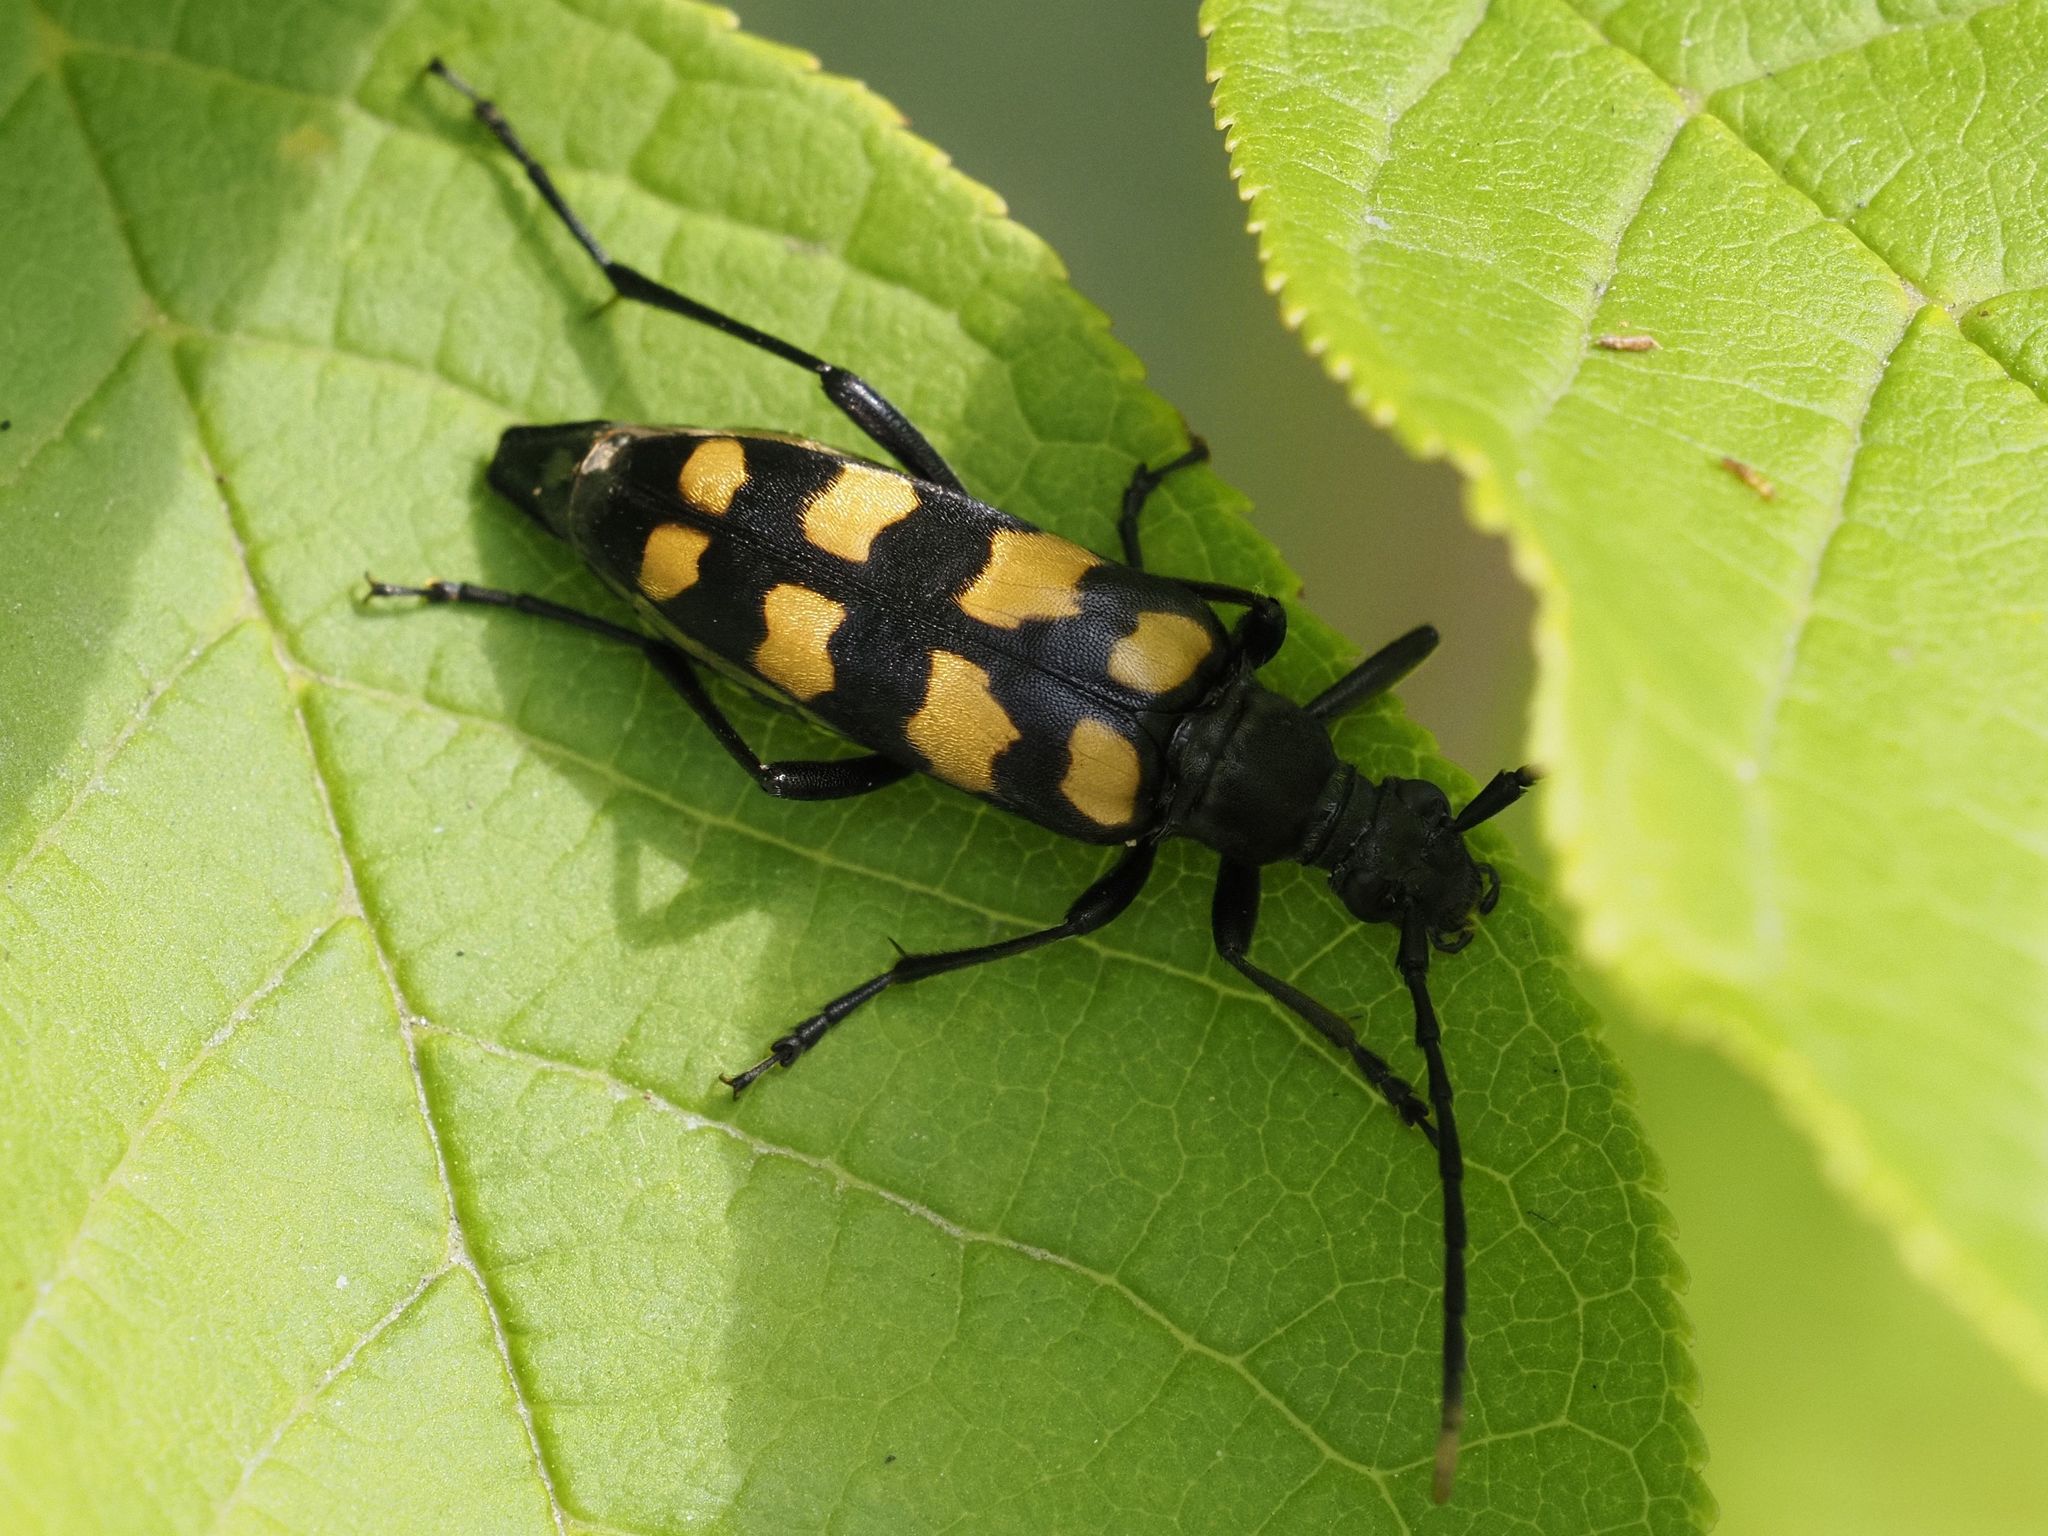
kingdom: Animalia
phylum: Arthropoda
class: Insecta
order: Coleoptera
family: Cerambycidae
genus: Leptura
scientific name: Leptura quadrifasciata
